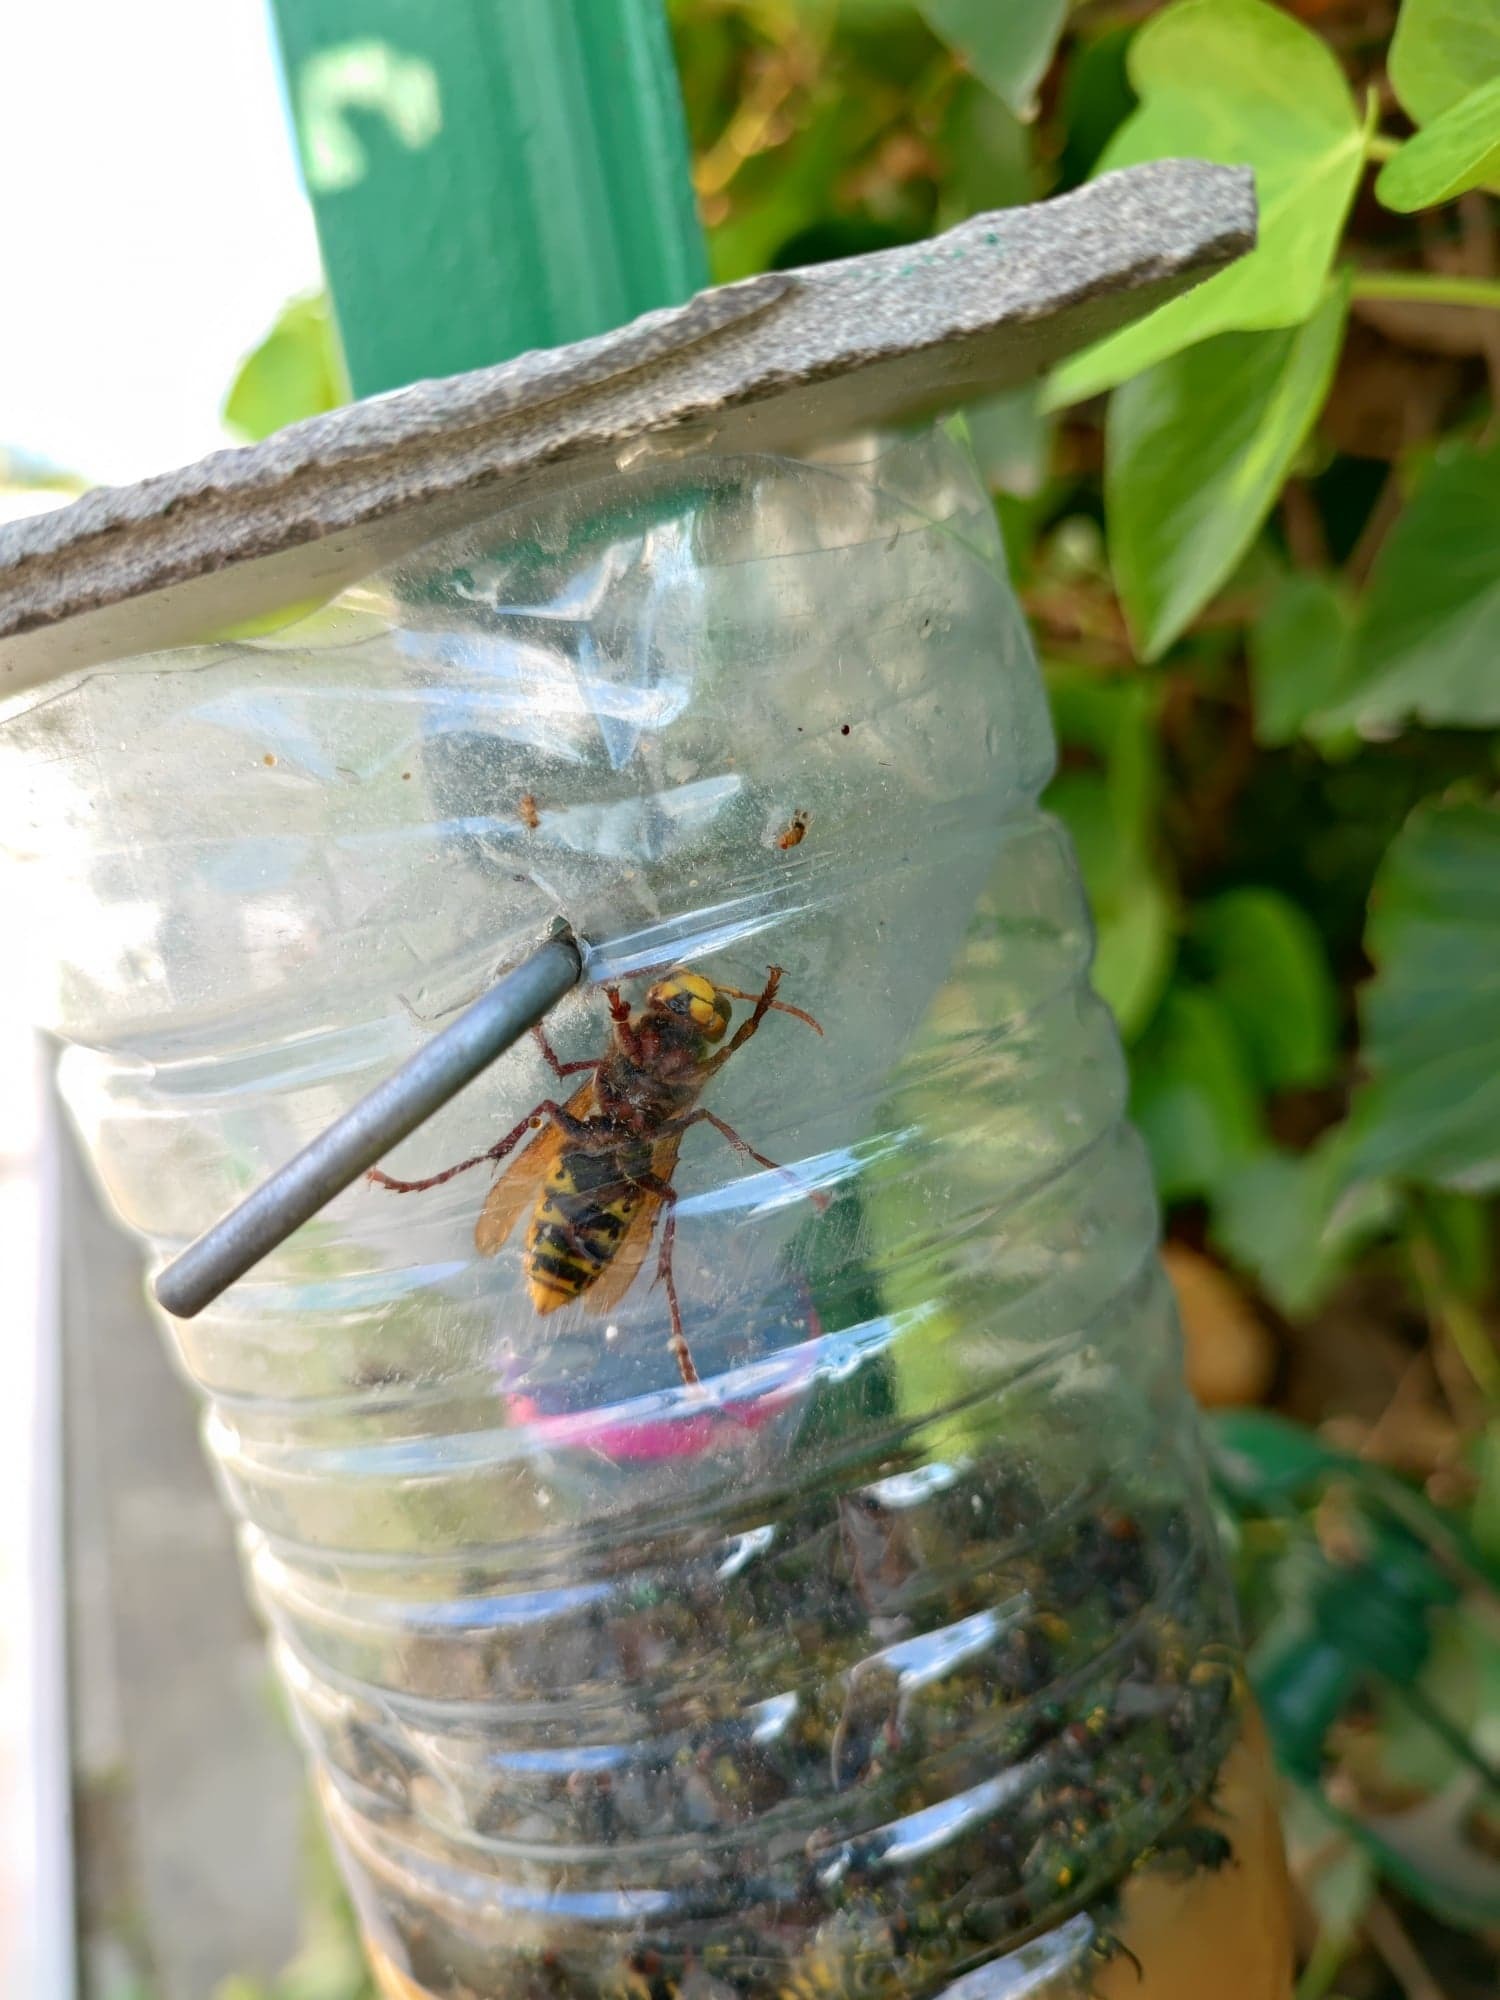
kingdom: Animalia
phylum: Arthropoda
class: Insecta
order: Hymenoptera
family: Vespidae
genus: Vespa
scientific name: Vespa crabro
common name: Hornet
